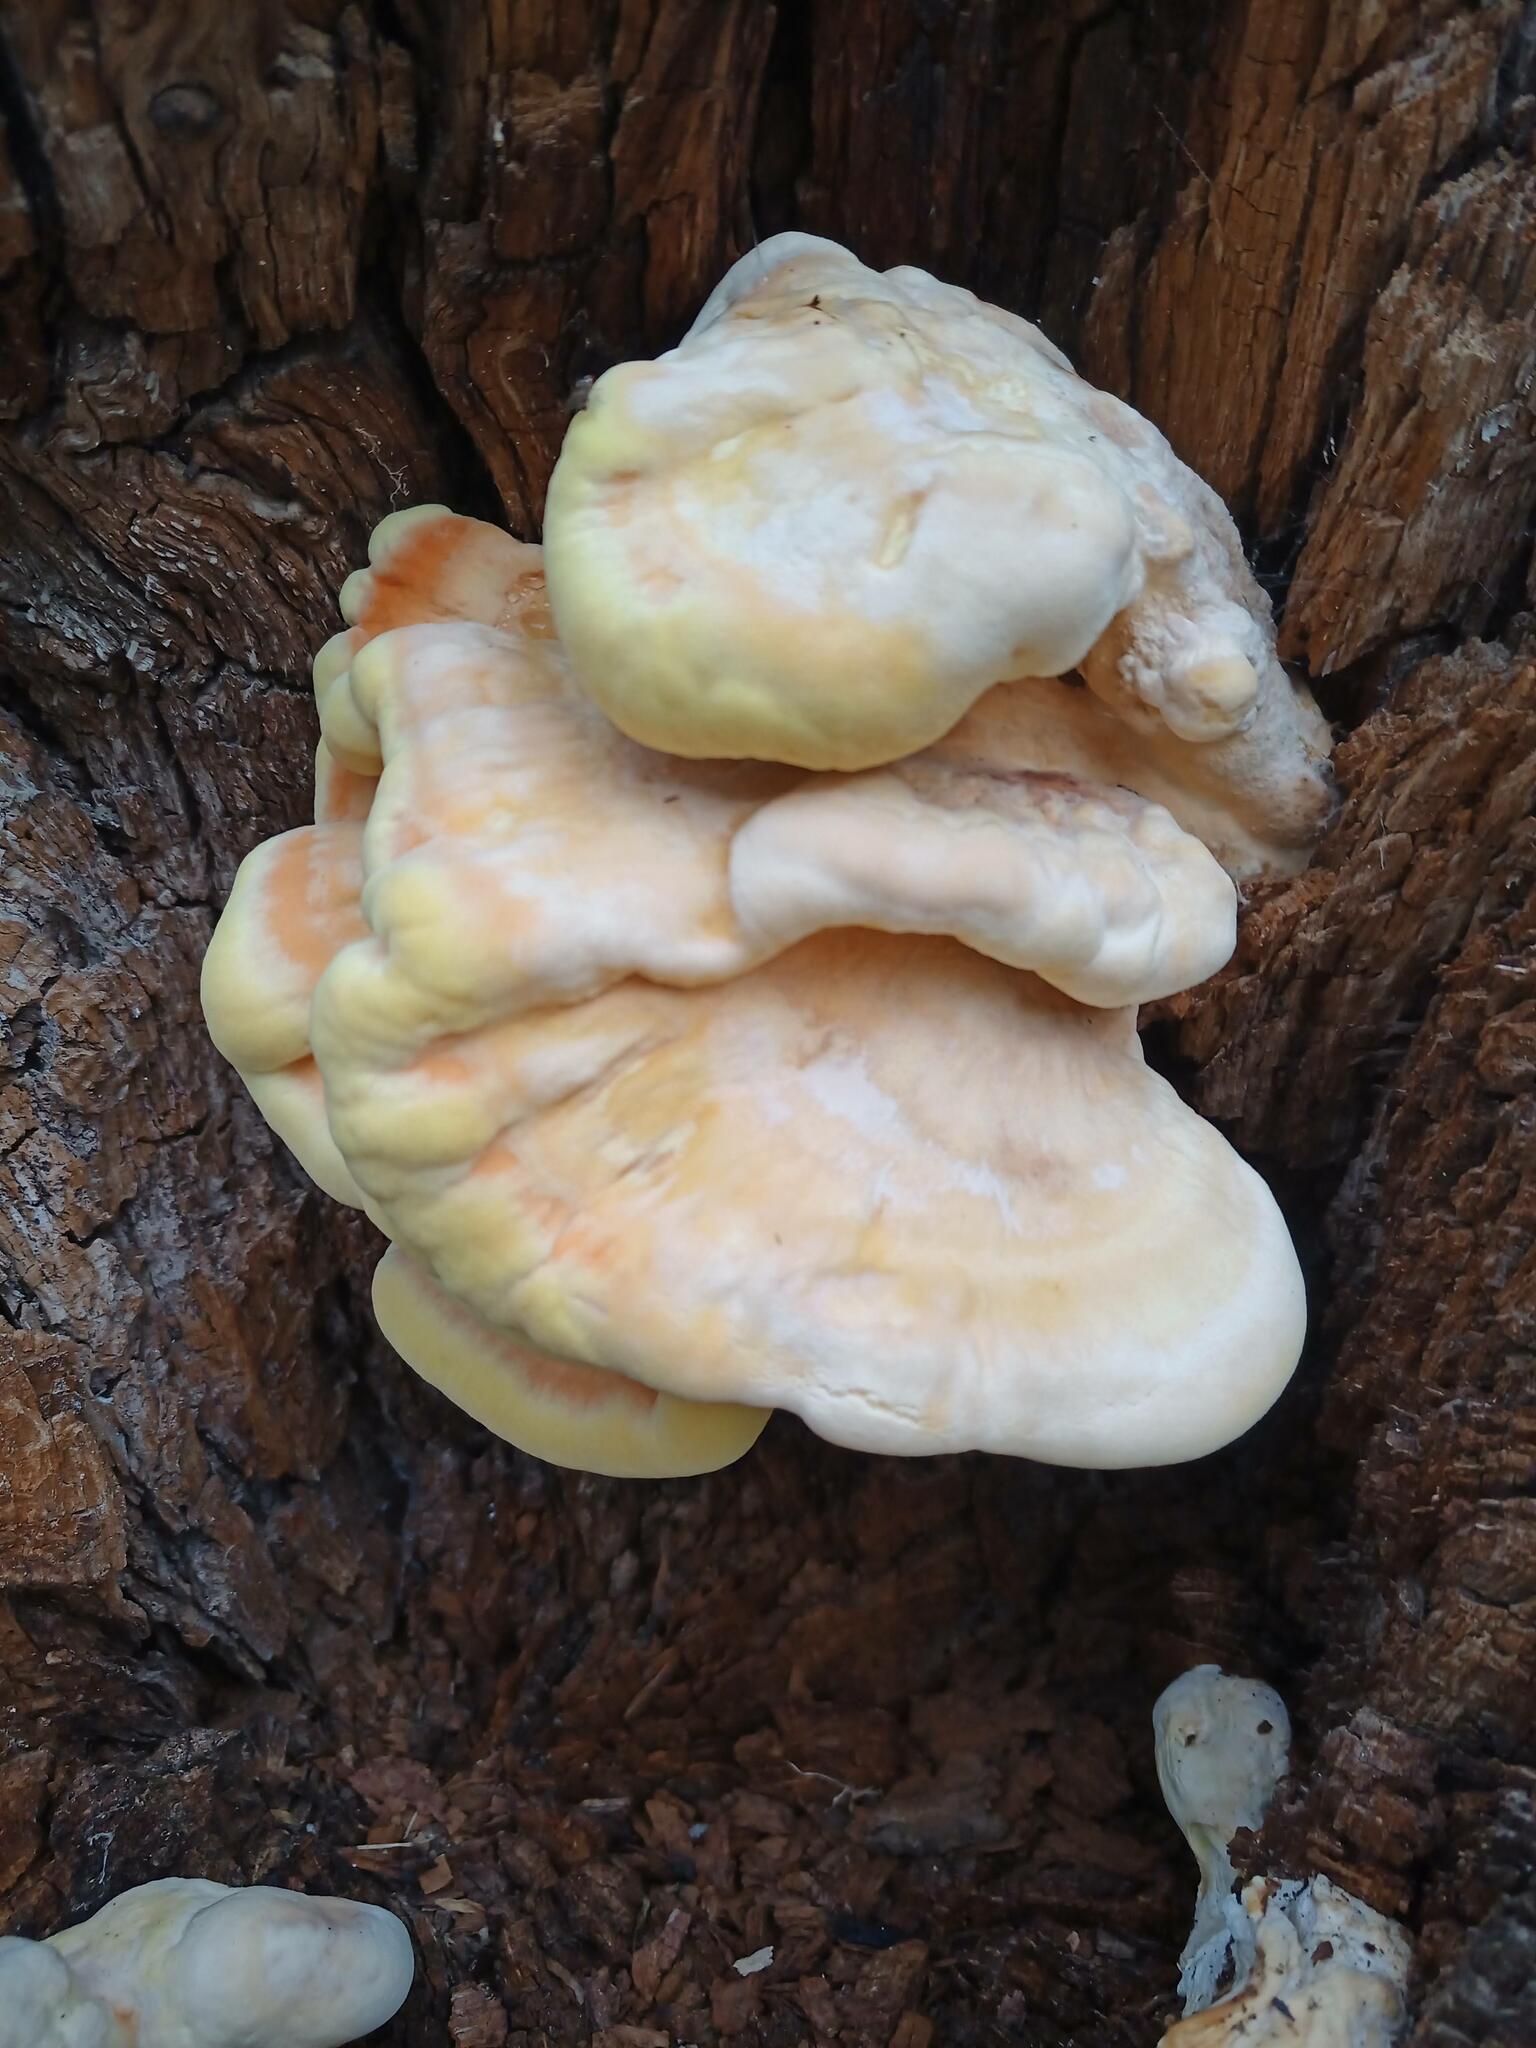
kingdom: Fungi
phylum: Basidiomycota
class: Agaricomycetes
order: Polyporales
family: Laetiporaceae
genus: Laetiporus
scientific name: Laetiporus sulphureus
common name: Chicken of the woods
